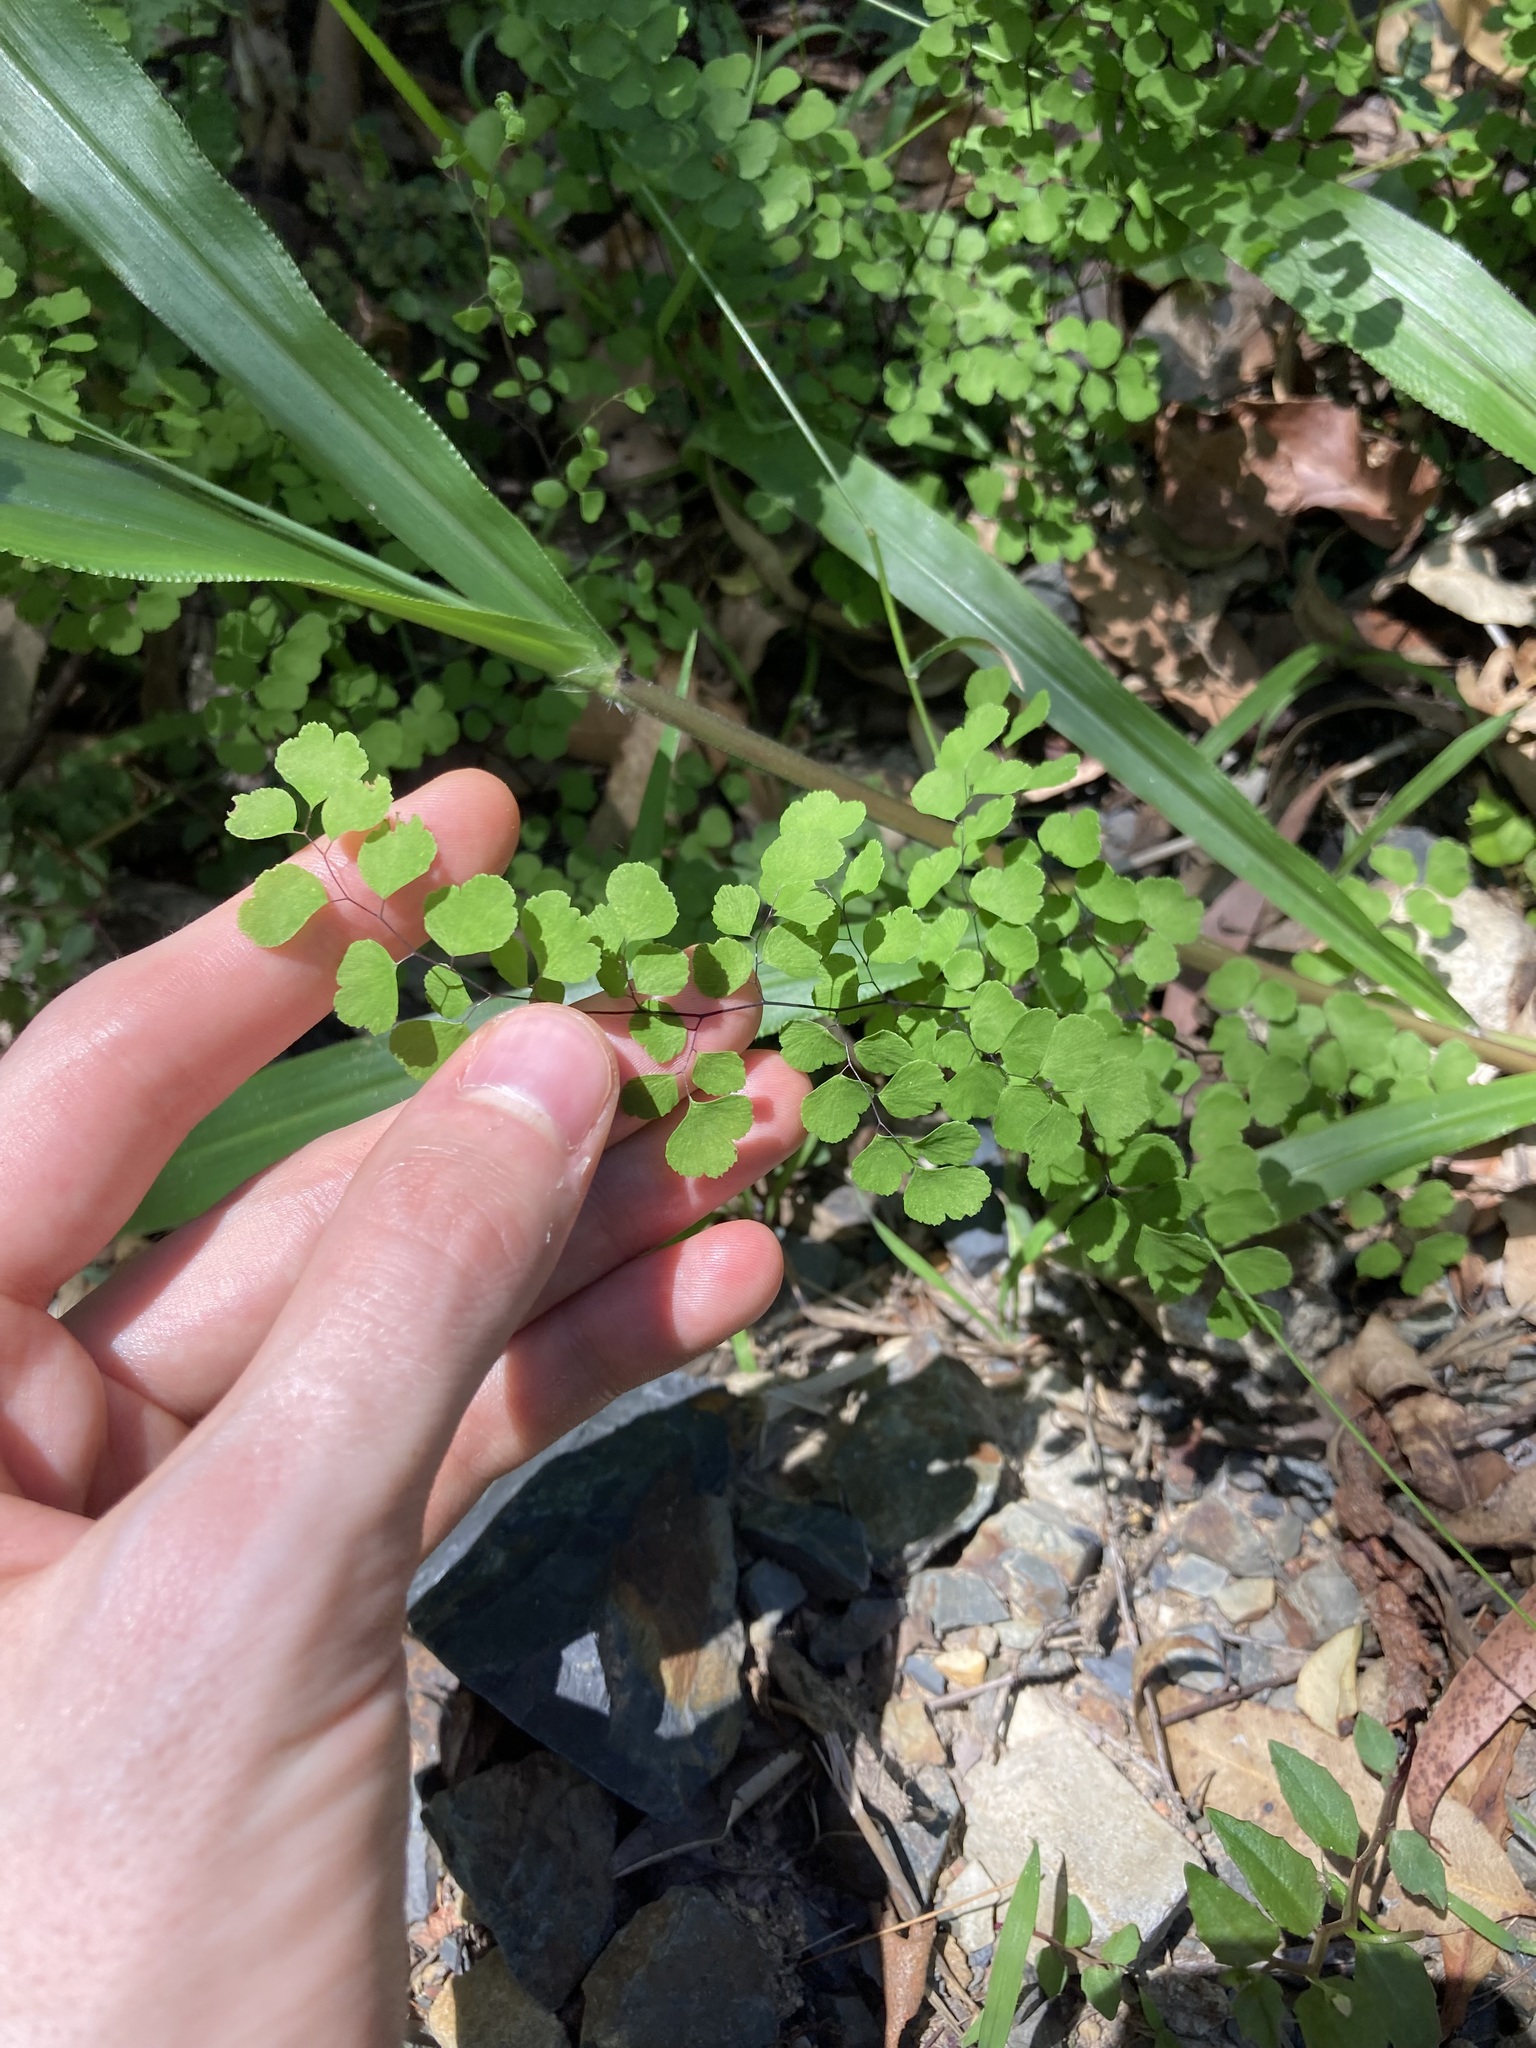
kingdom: Plantae
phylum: Tracheophyta
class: Polypodiopsida
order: Polypodiales
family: Pteridaceae
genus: Adiantum
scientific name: Adiantum aethiopicum
